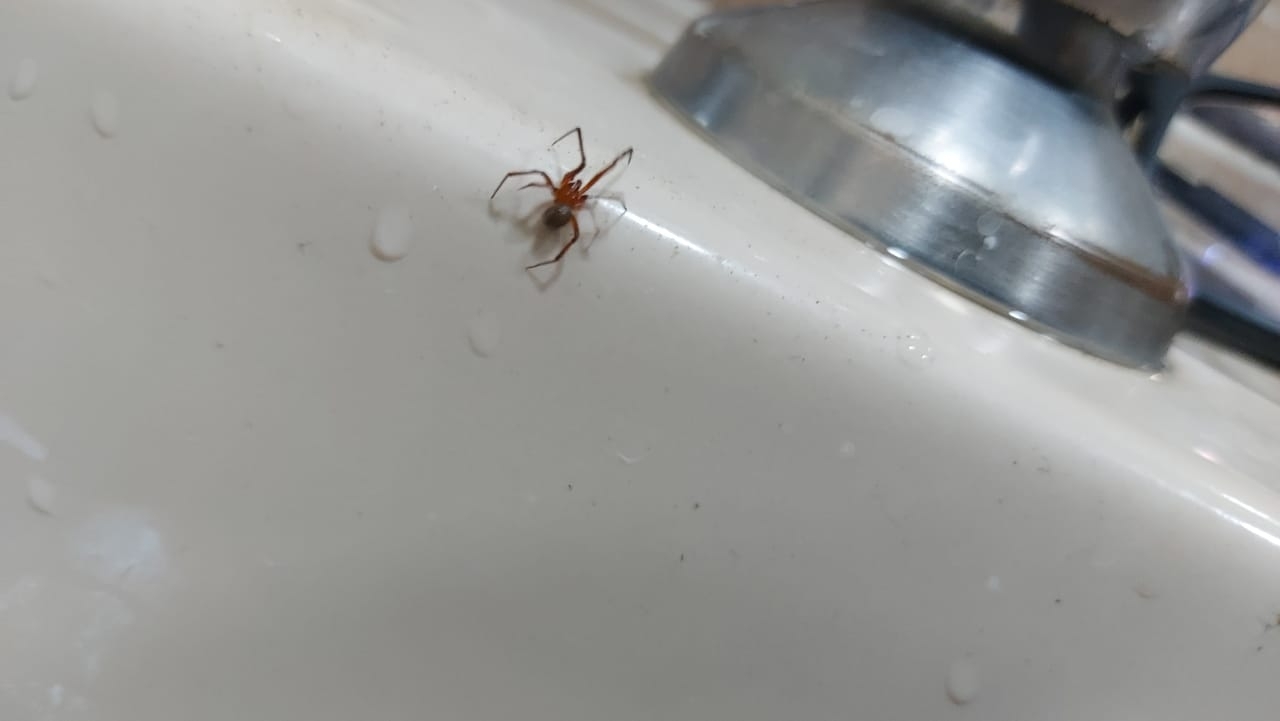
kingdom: Animalia
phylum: Arthropoda
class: Arachnida
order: Araneae
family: Theridiidae
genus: Nesticodes
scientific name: Nesticodes rufipes
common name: Cobweb spiders
